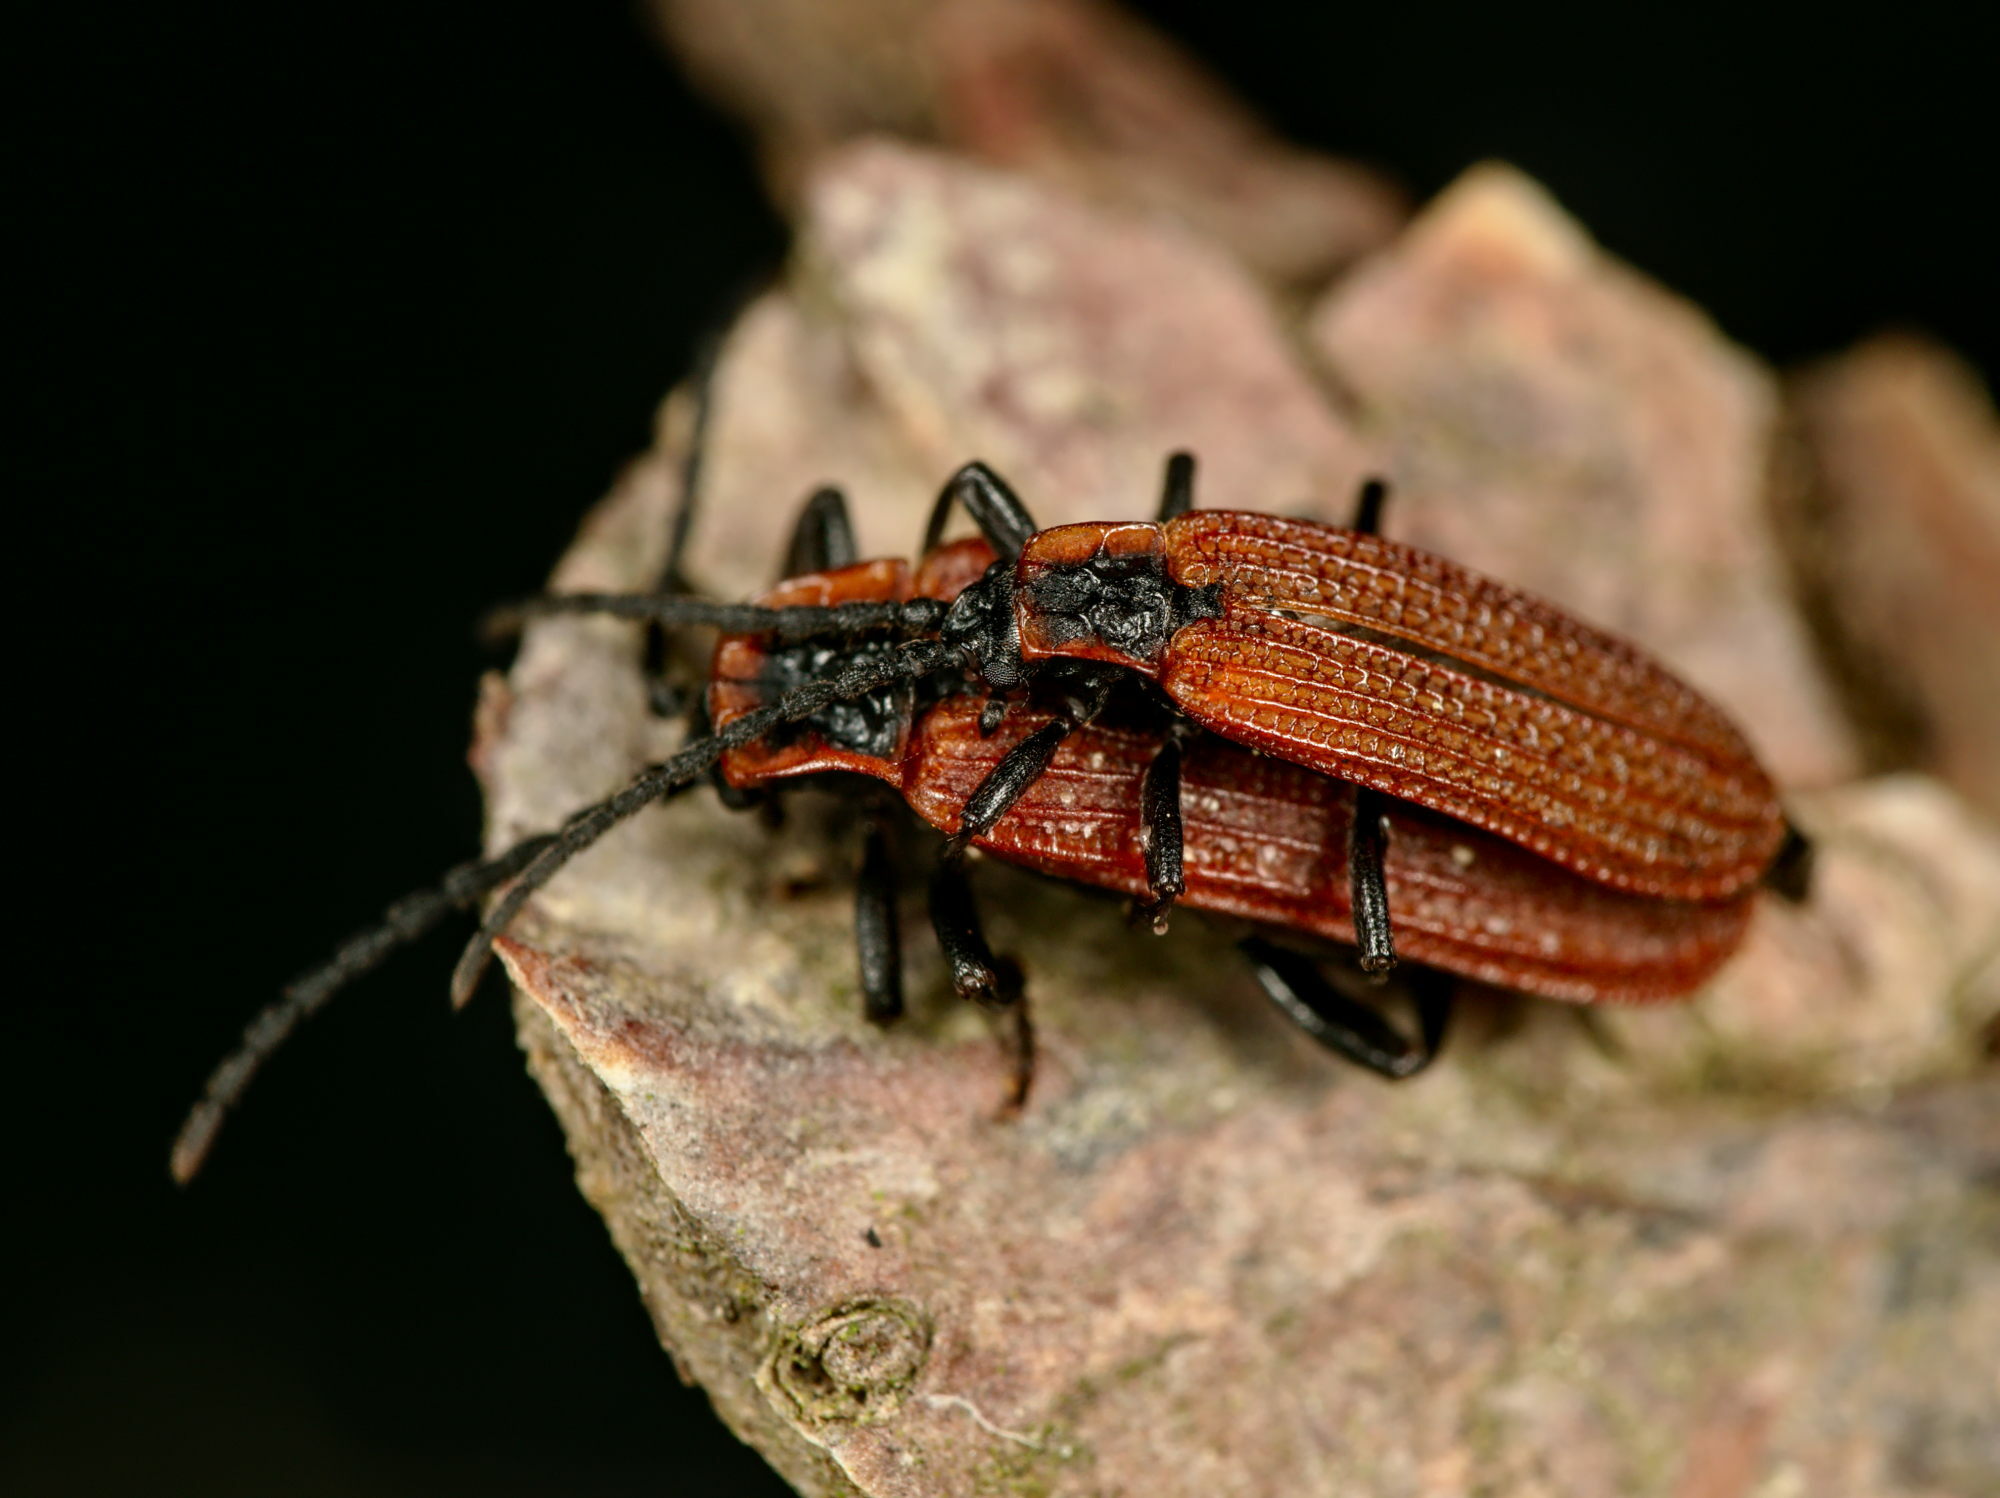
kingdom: Animalia
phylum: Arthropoda
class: Insecta
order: Coleoptera
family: Lycidae
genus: Erotides
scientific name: Erotides cosnardi
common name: Cosnard's net-winged beetle
